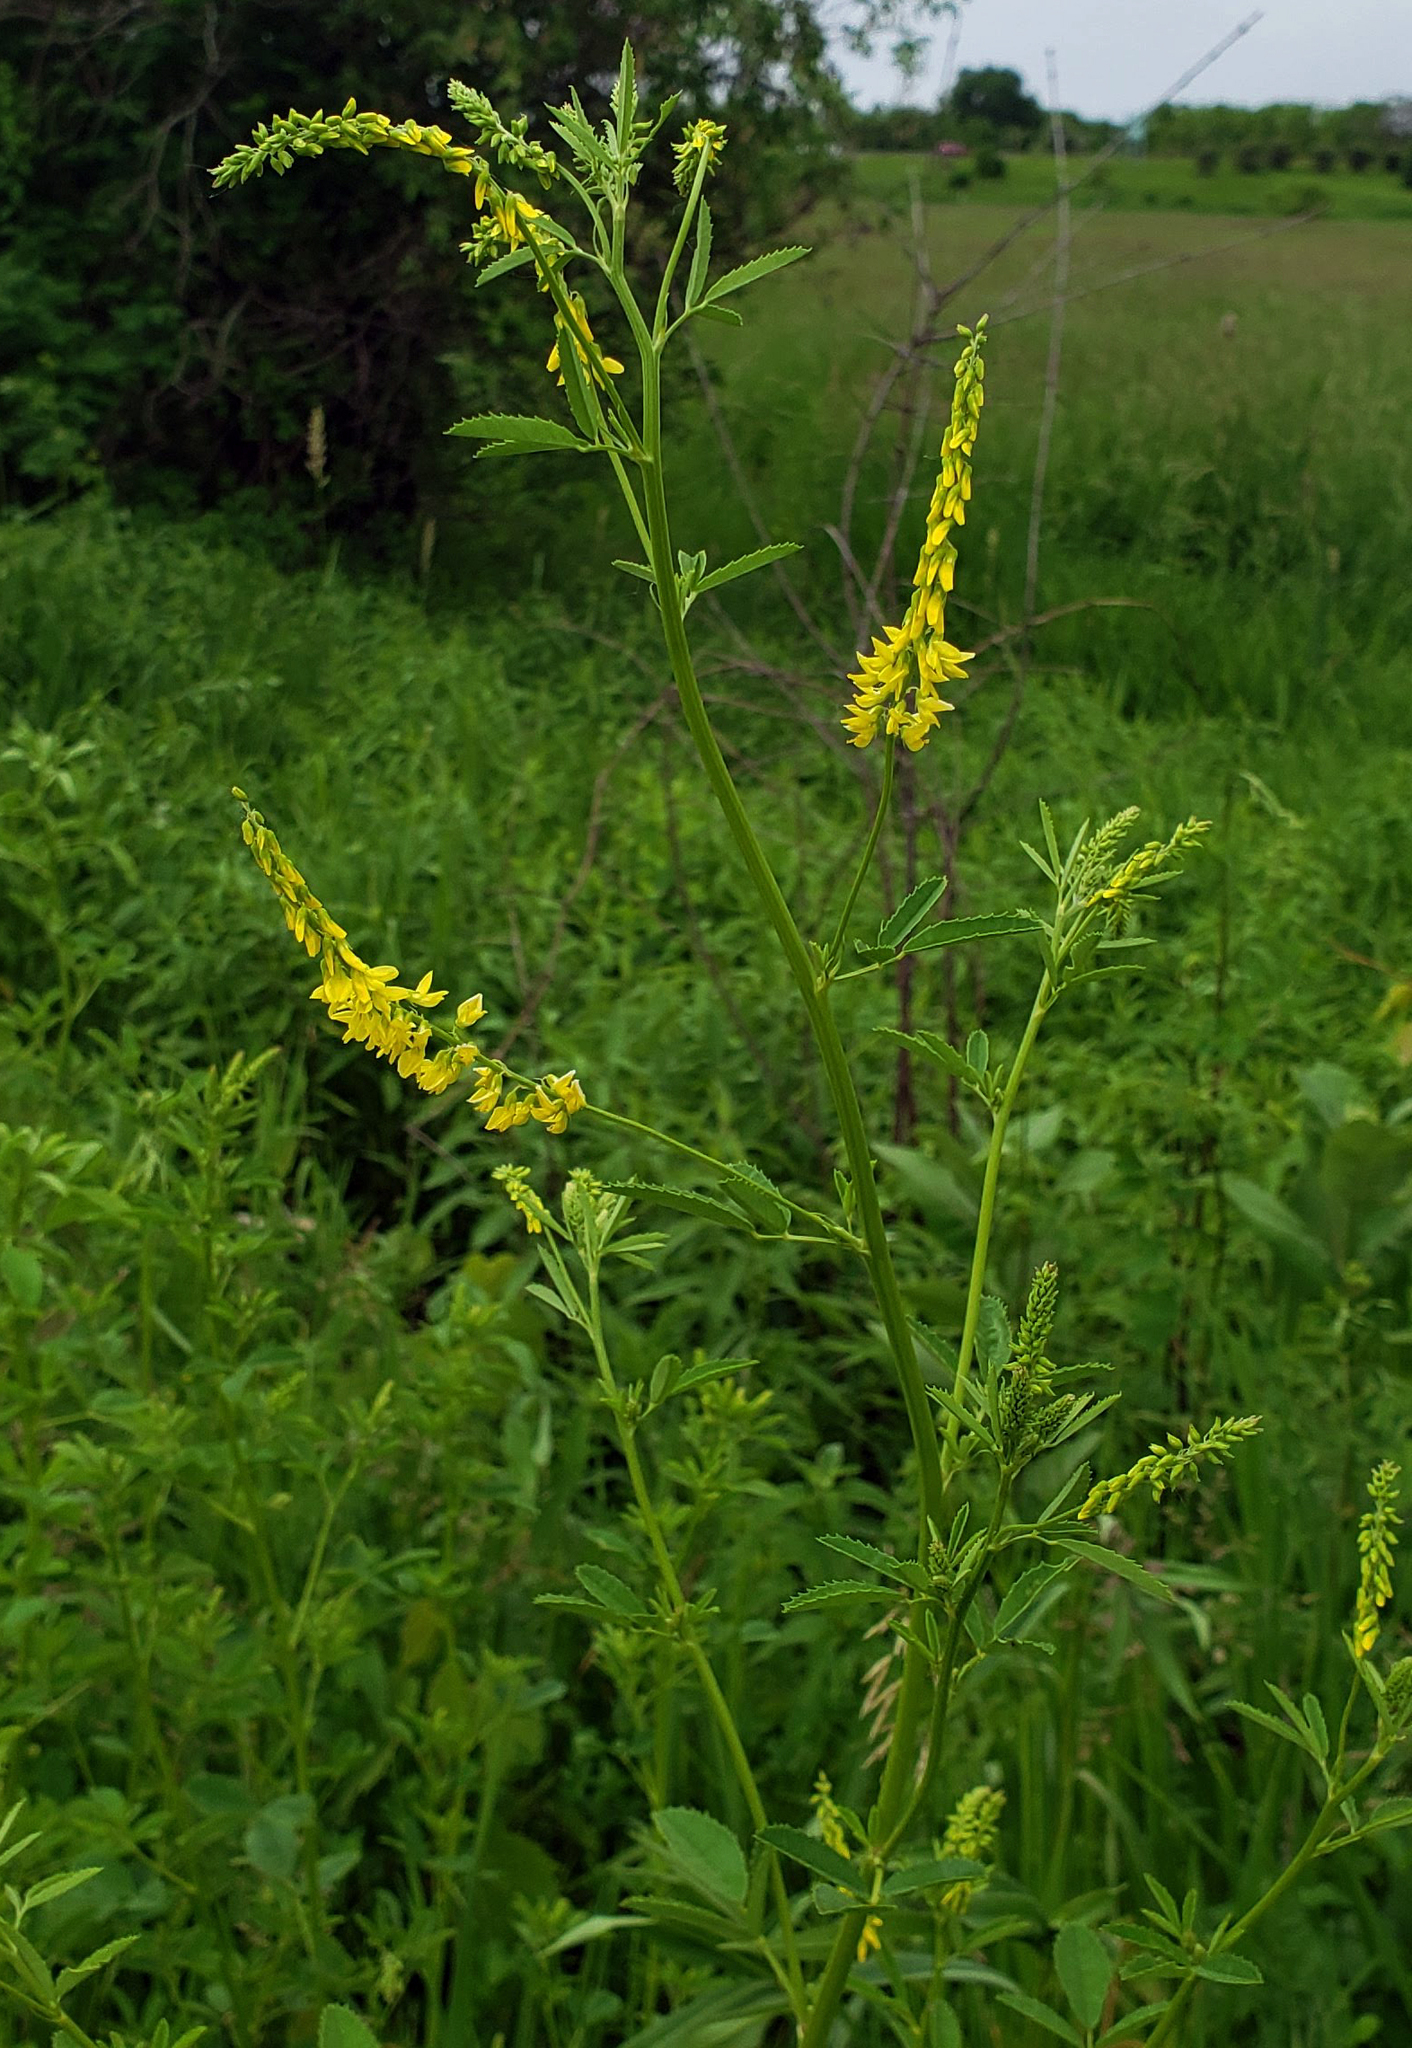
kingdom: Plantae
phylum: Tracheophyta
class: Magnoliopsida
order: Fabales
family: Fabaceae
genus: Melilotus
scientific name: Melilotus officinalis
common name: Sweetclover
